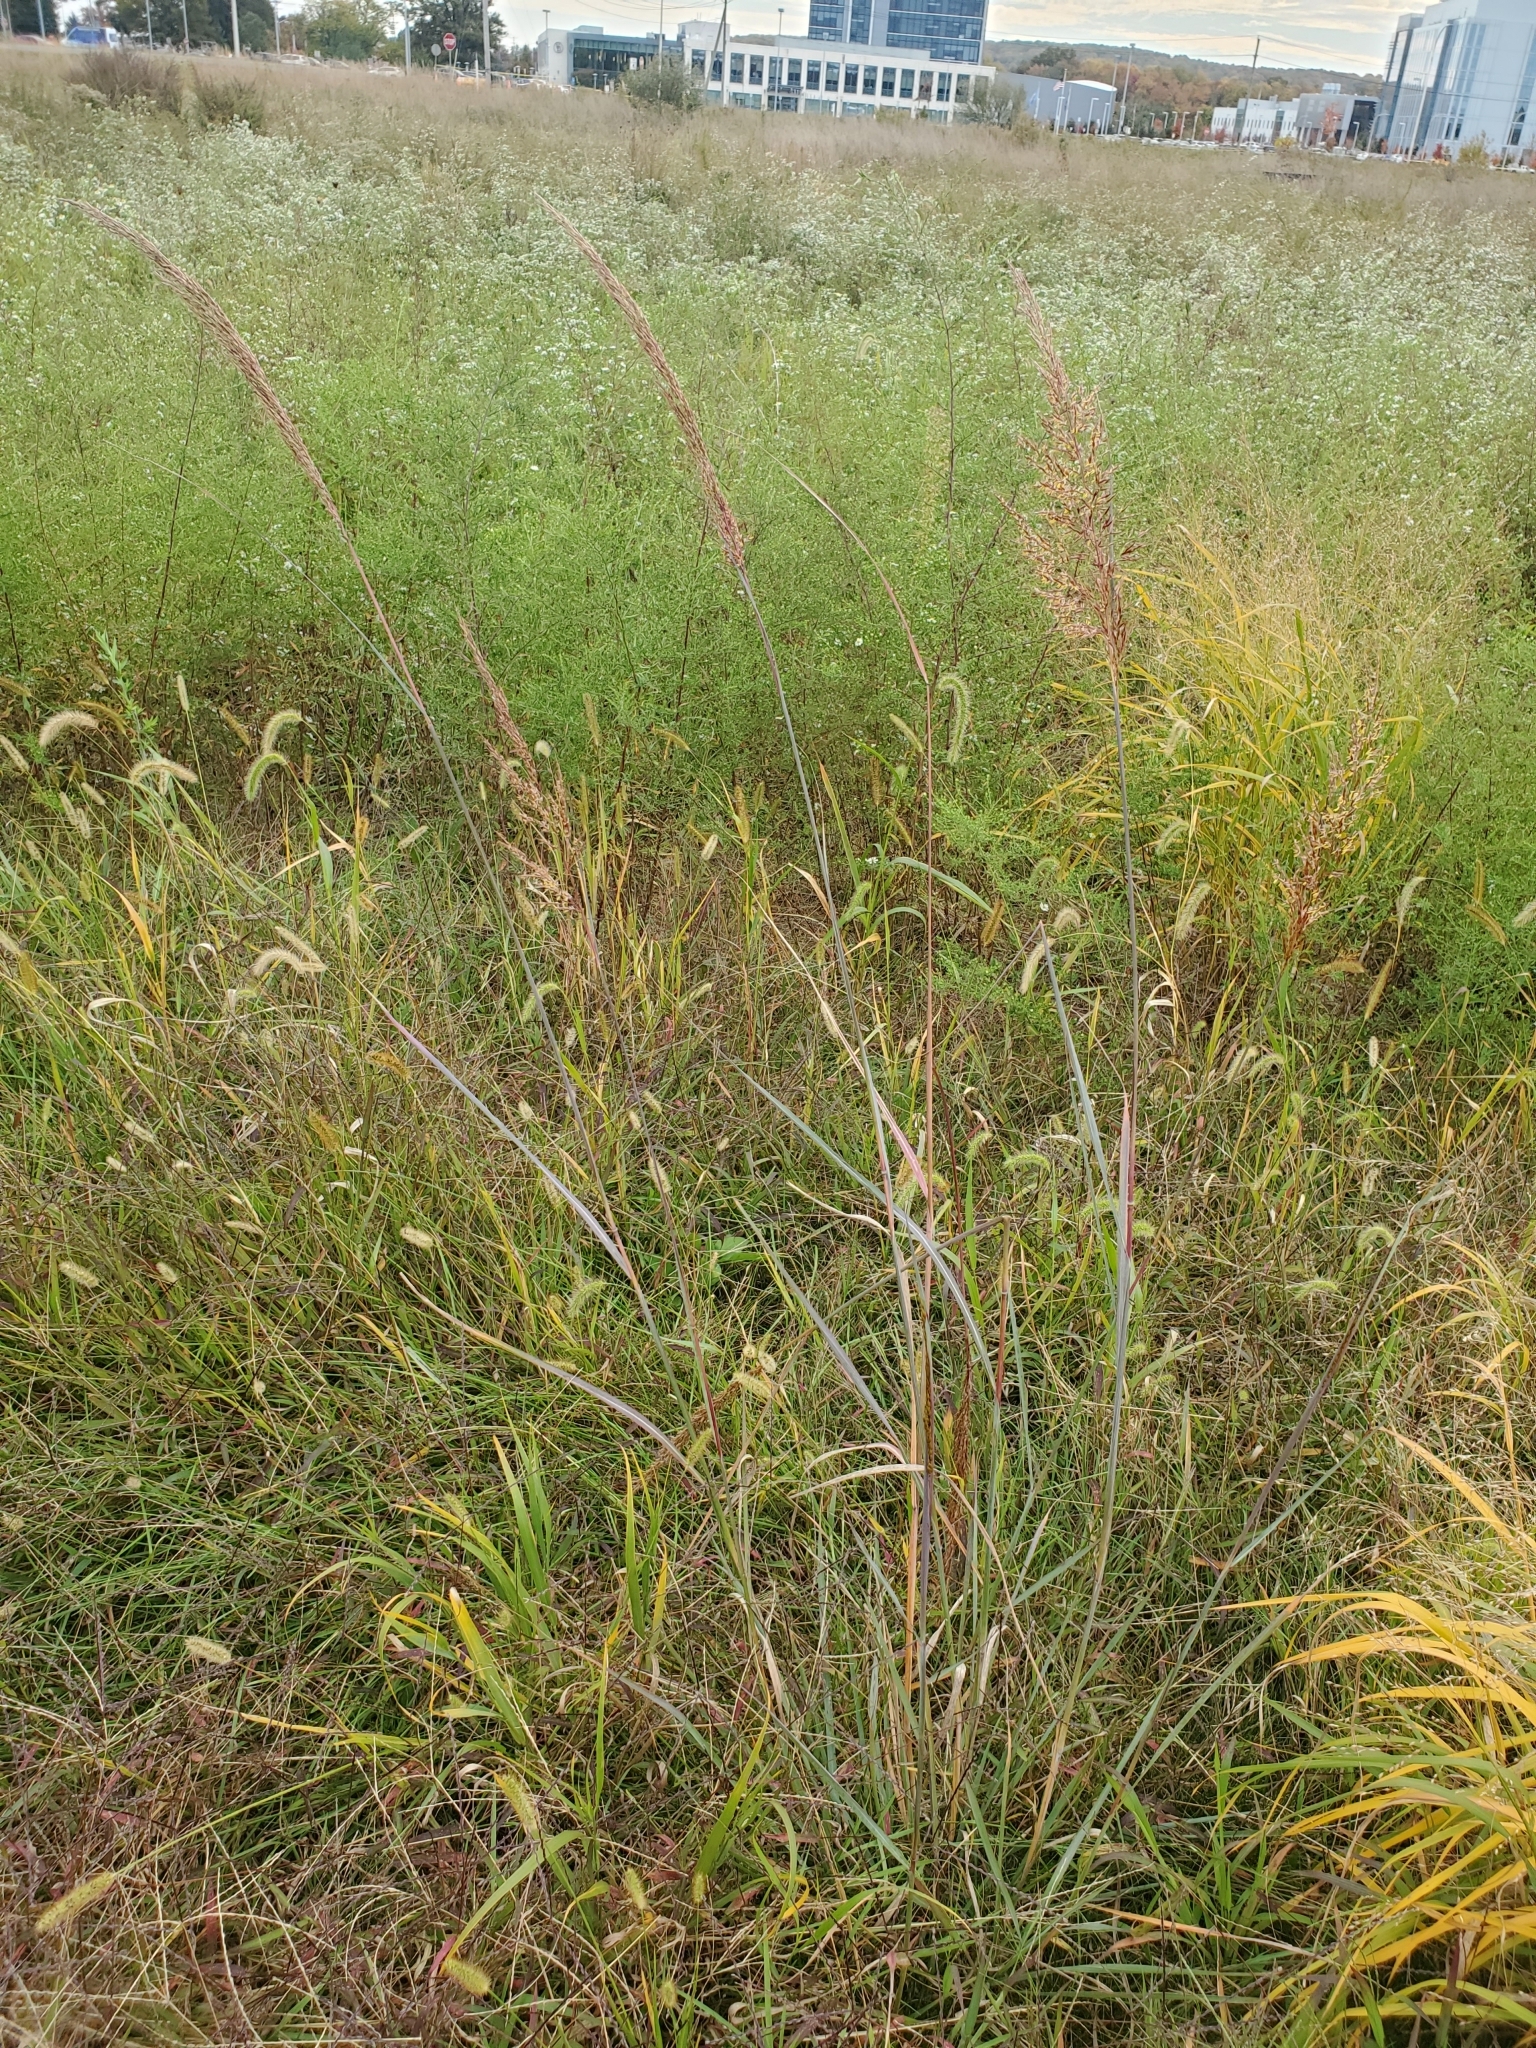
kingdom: Plantae
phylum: Tracheophyta
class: Liliopsida
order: Poales
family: Poaceae
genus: Sorghastrum
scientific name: Sorghastrum nutans
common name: Indian grass
